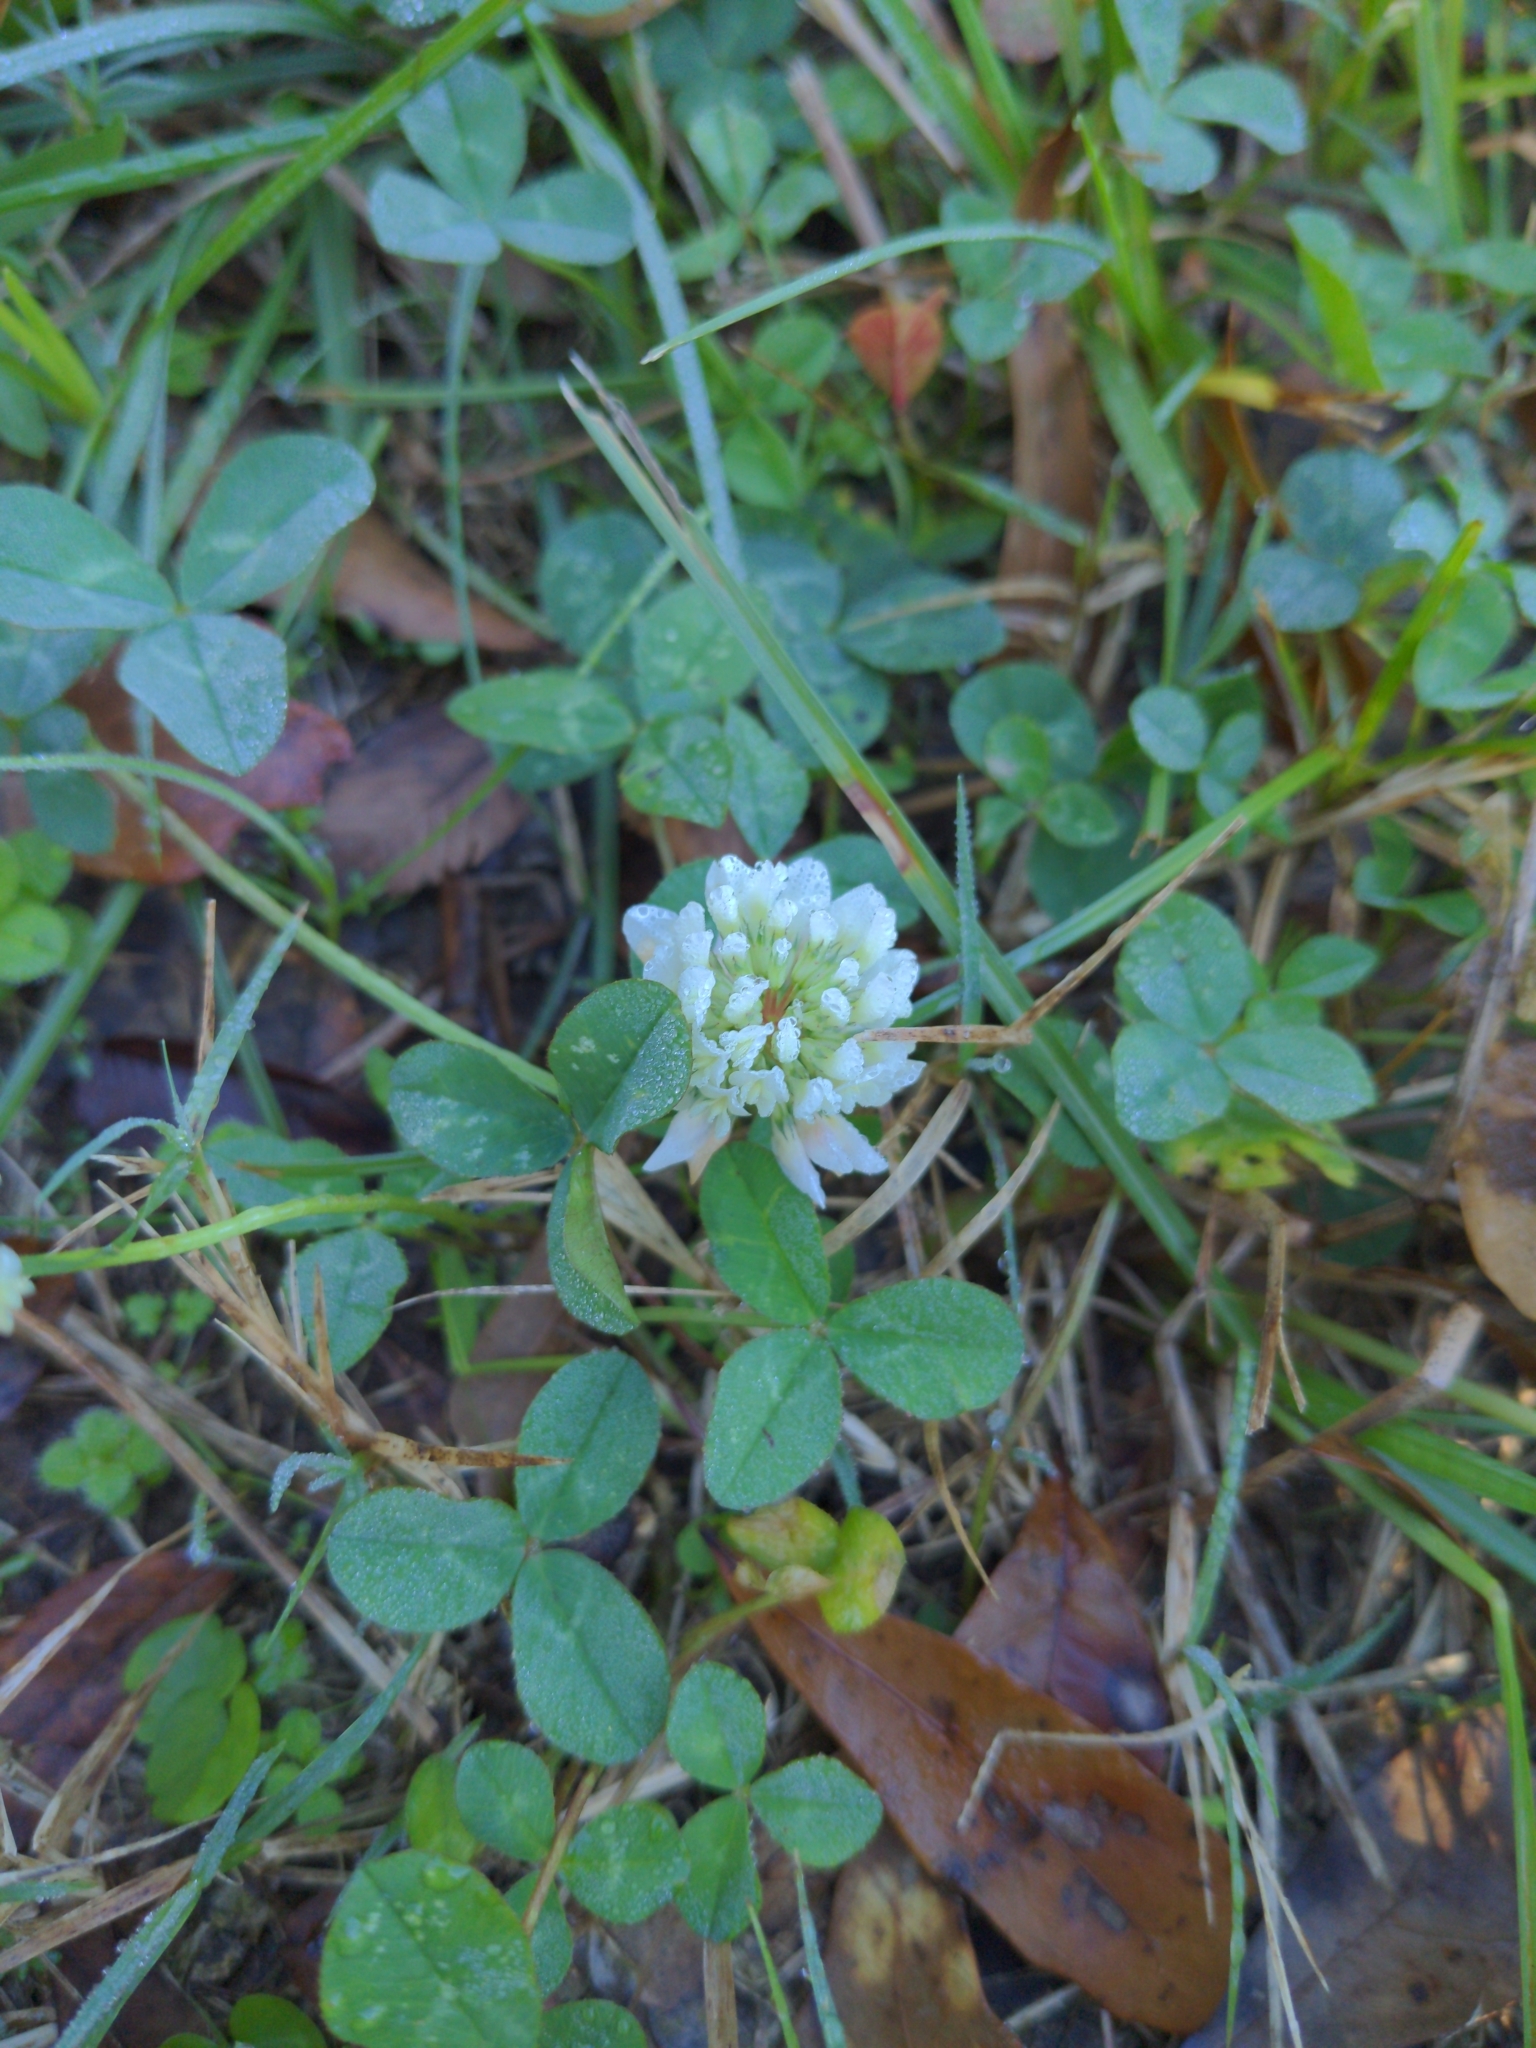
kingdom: Plantae
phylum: Tracheophyta
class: Magnoliopsida
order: Fabales
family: Fabaceae
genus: Trifolium
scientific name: Trifolium repens
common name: White clover
